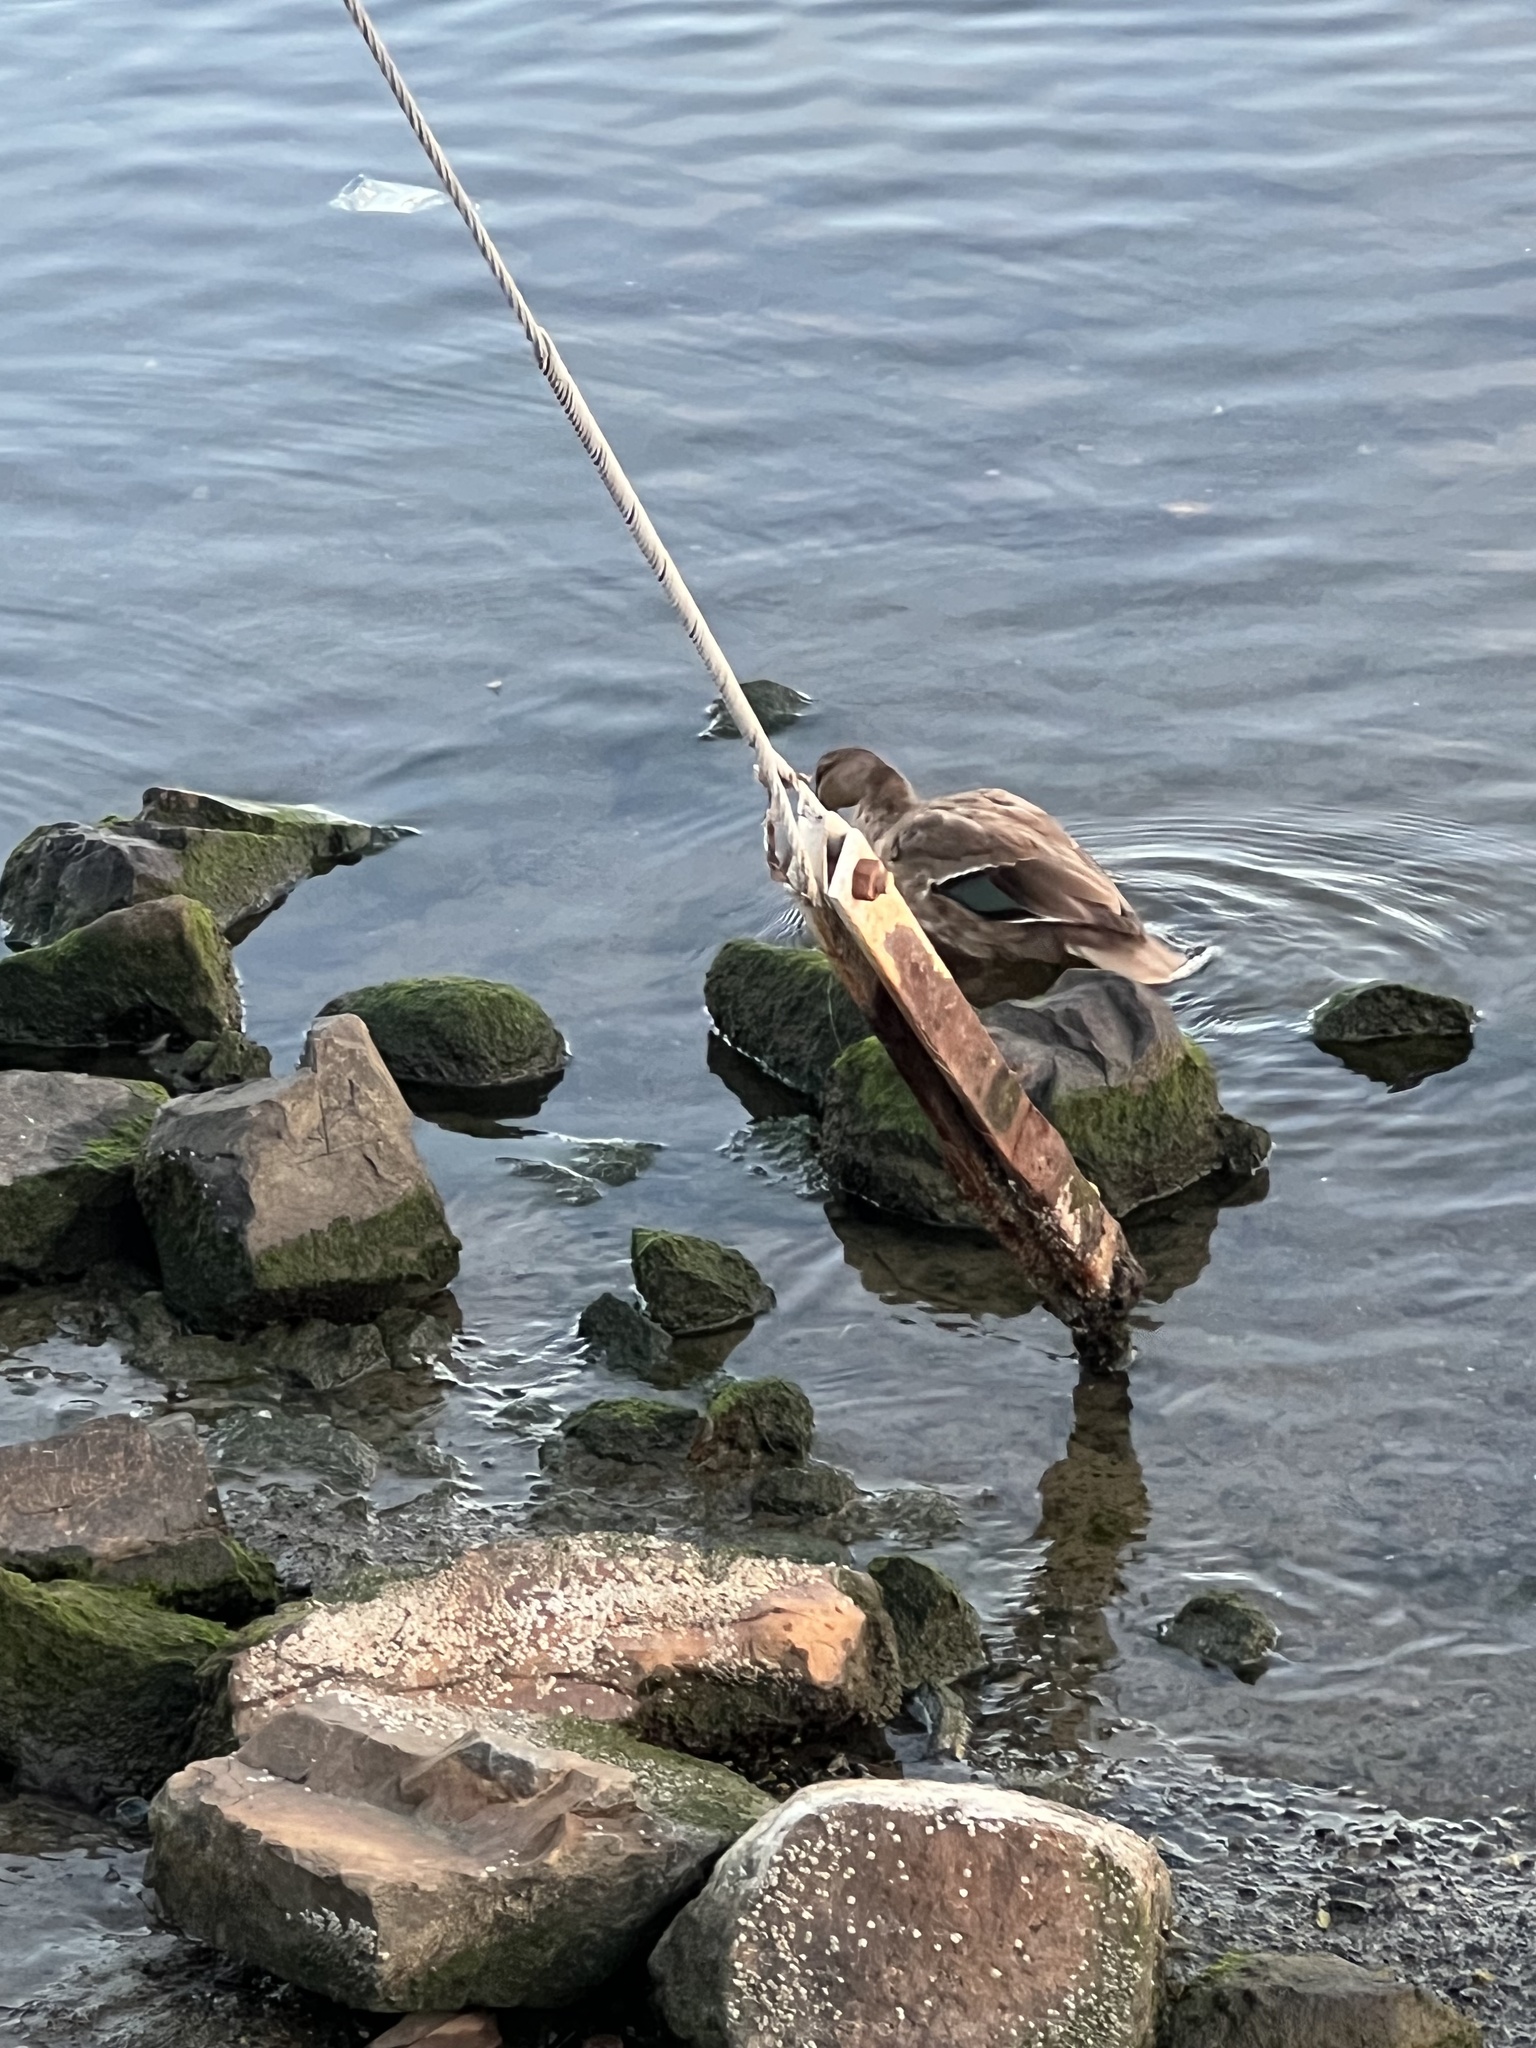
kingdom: Animalia
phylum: Chordata
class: Aves
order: Anseriformes
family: Anatidae
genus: Anas
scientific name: Anas
